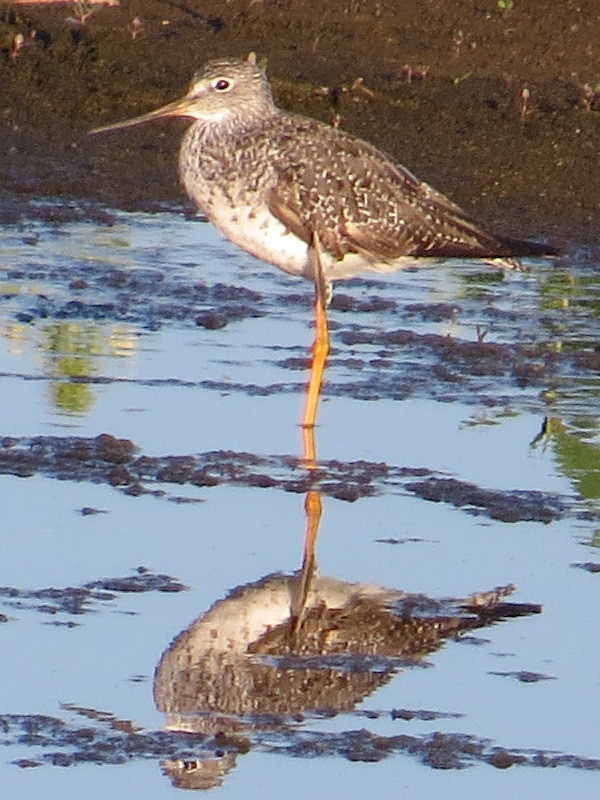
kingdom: Animalia
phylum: Chordata
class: Aves
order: Charadriiformes
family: Scolopacidae
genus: Tringa
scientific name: Tringa melanoleuca
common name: Greater yellowlegs
